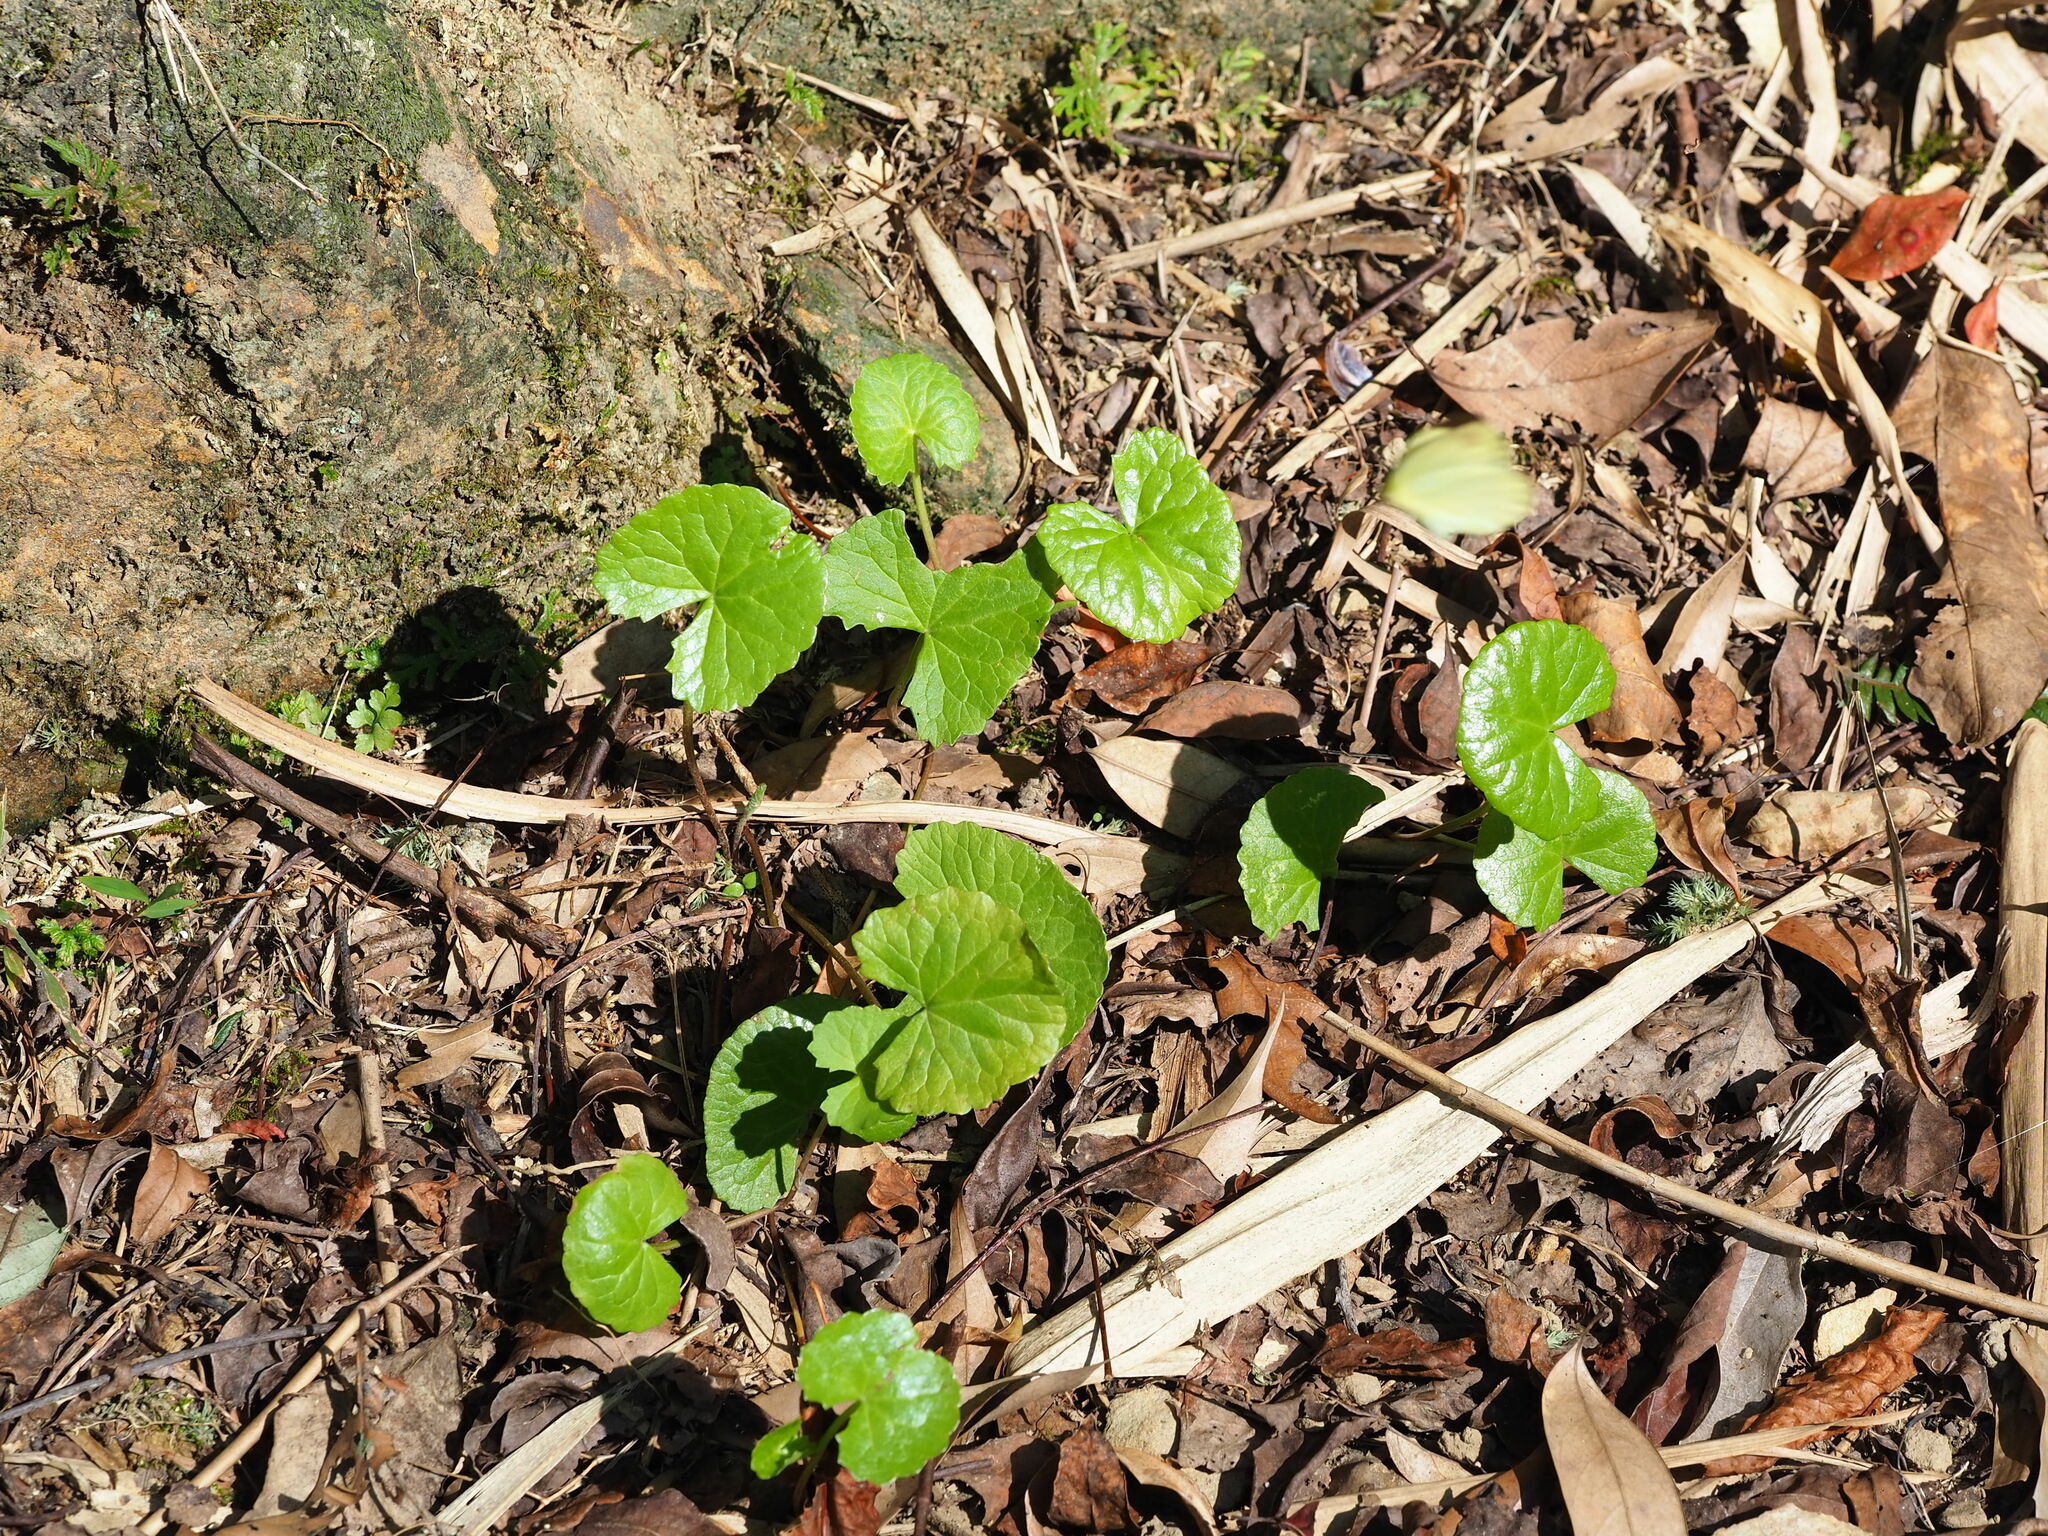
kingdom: Plantae
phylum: Tracheophyta
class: Magnoliopsida
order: Apiales
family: Apiaceae
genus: Centella
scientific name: Centella asiatica
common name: Spadeleaf
